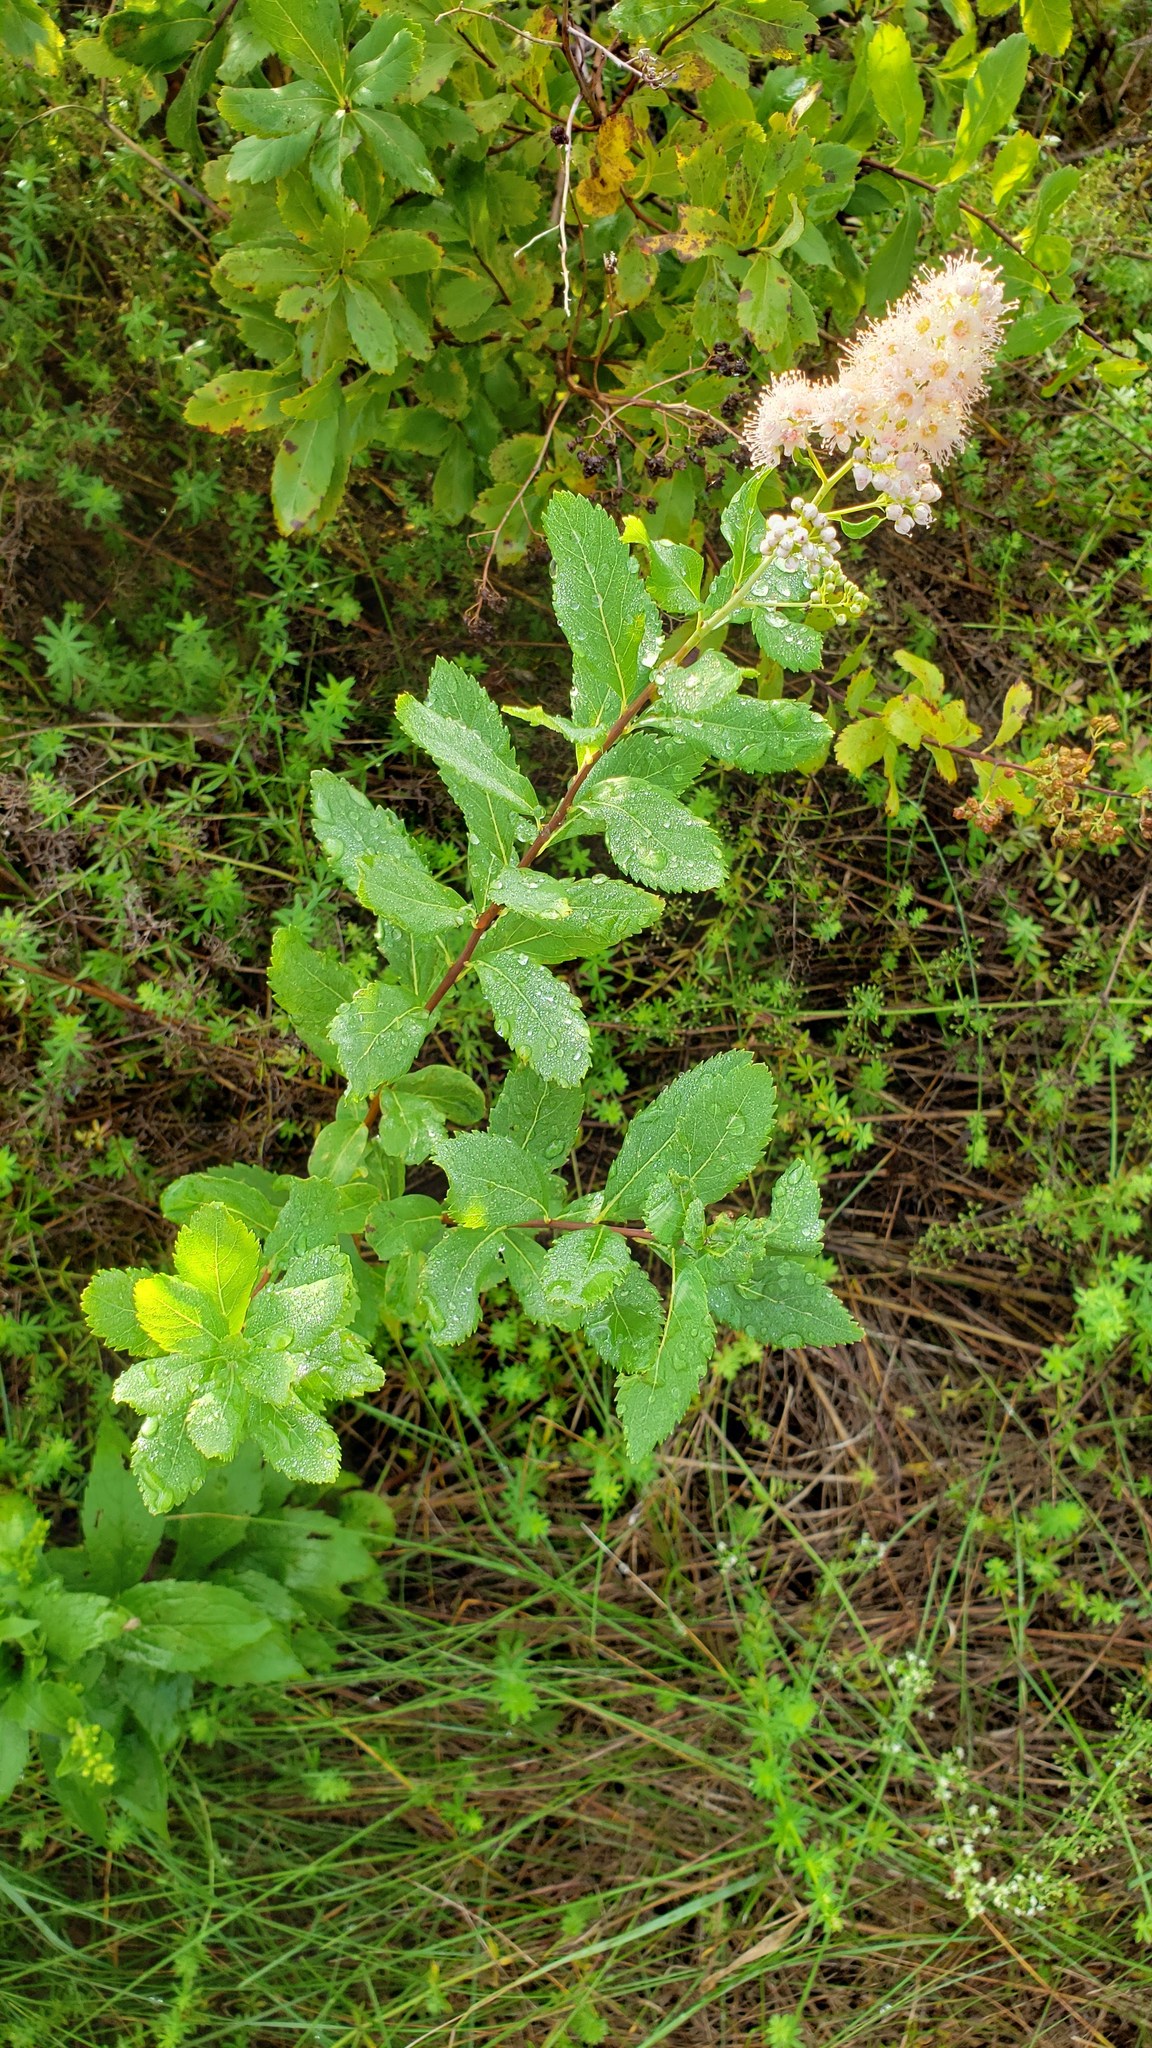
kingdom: Plantae
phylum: Tracheophyta
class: Magnoliopsida
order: Rosales
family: Rosaceae
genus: Spiraea
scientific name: Spiraea alba
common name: Pale bridewort
